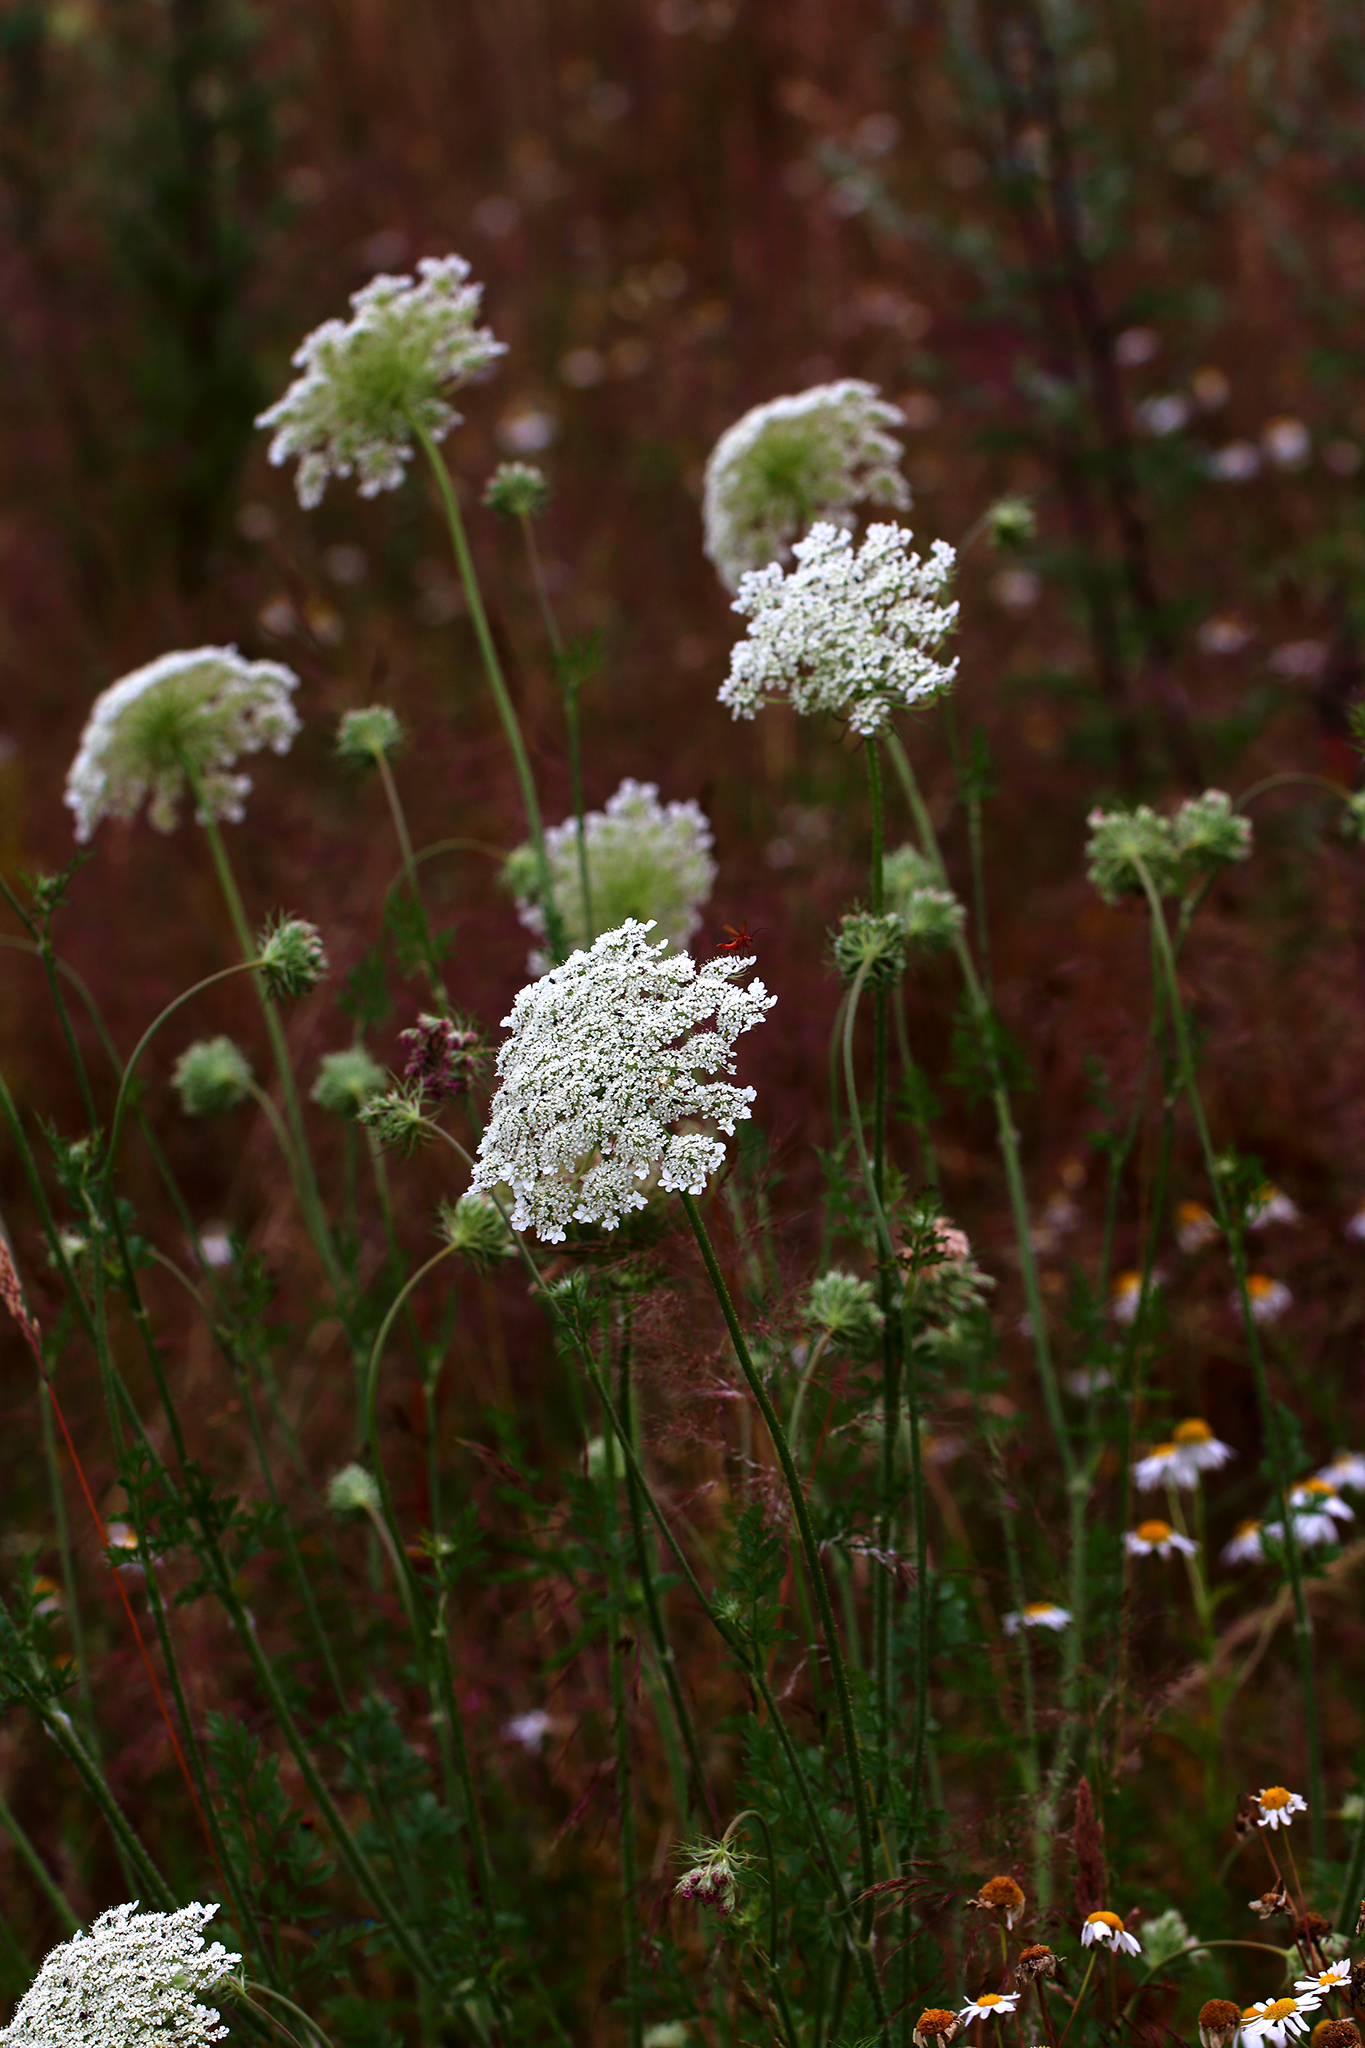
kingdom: Plantae
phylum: Tracheophyta
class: Magnoliopsida
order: Apiales
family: Apiaceae
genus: Daucus
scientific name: Daucus carota
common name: Wild carrot
